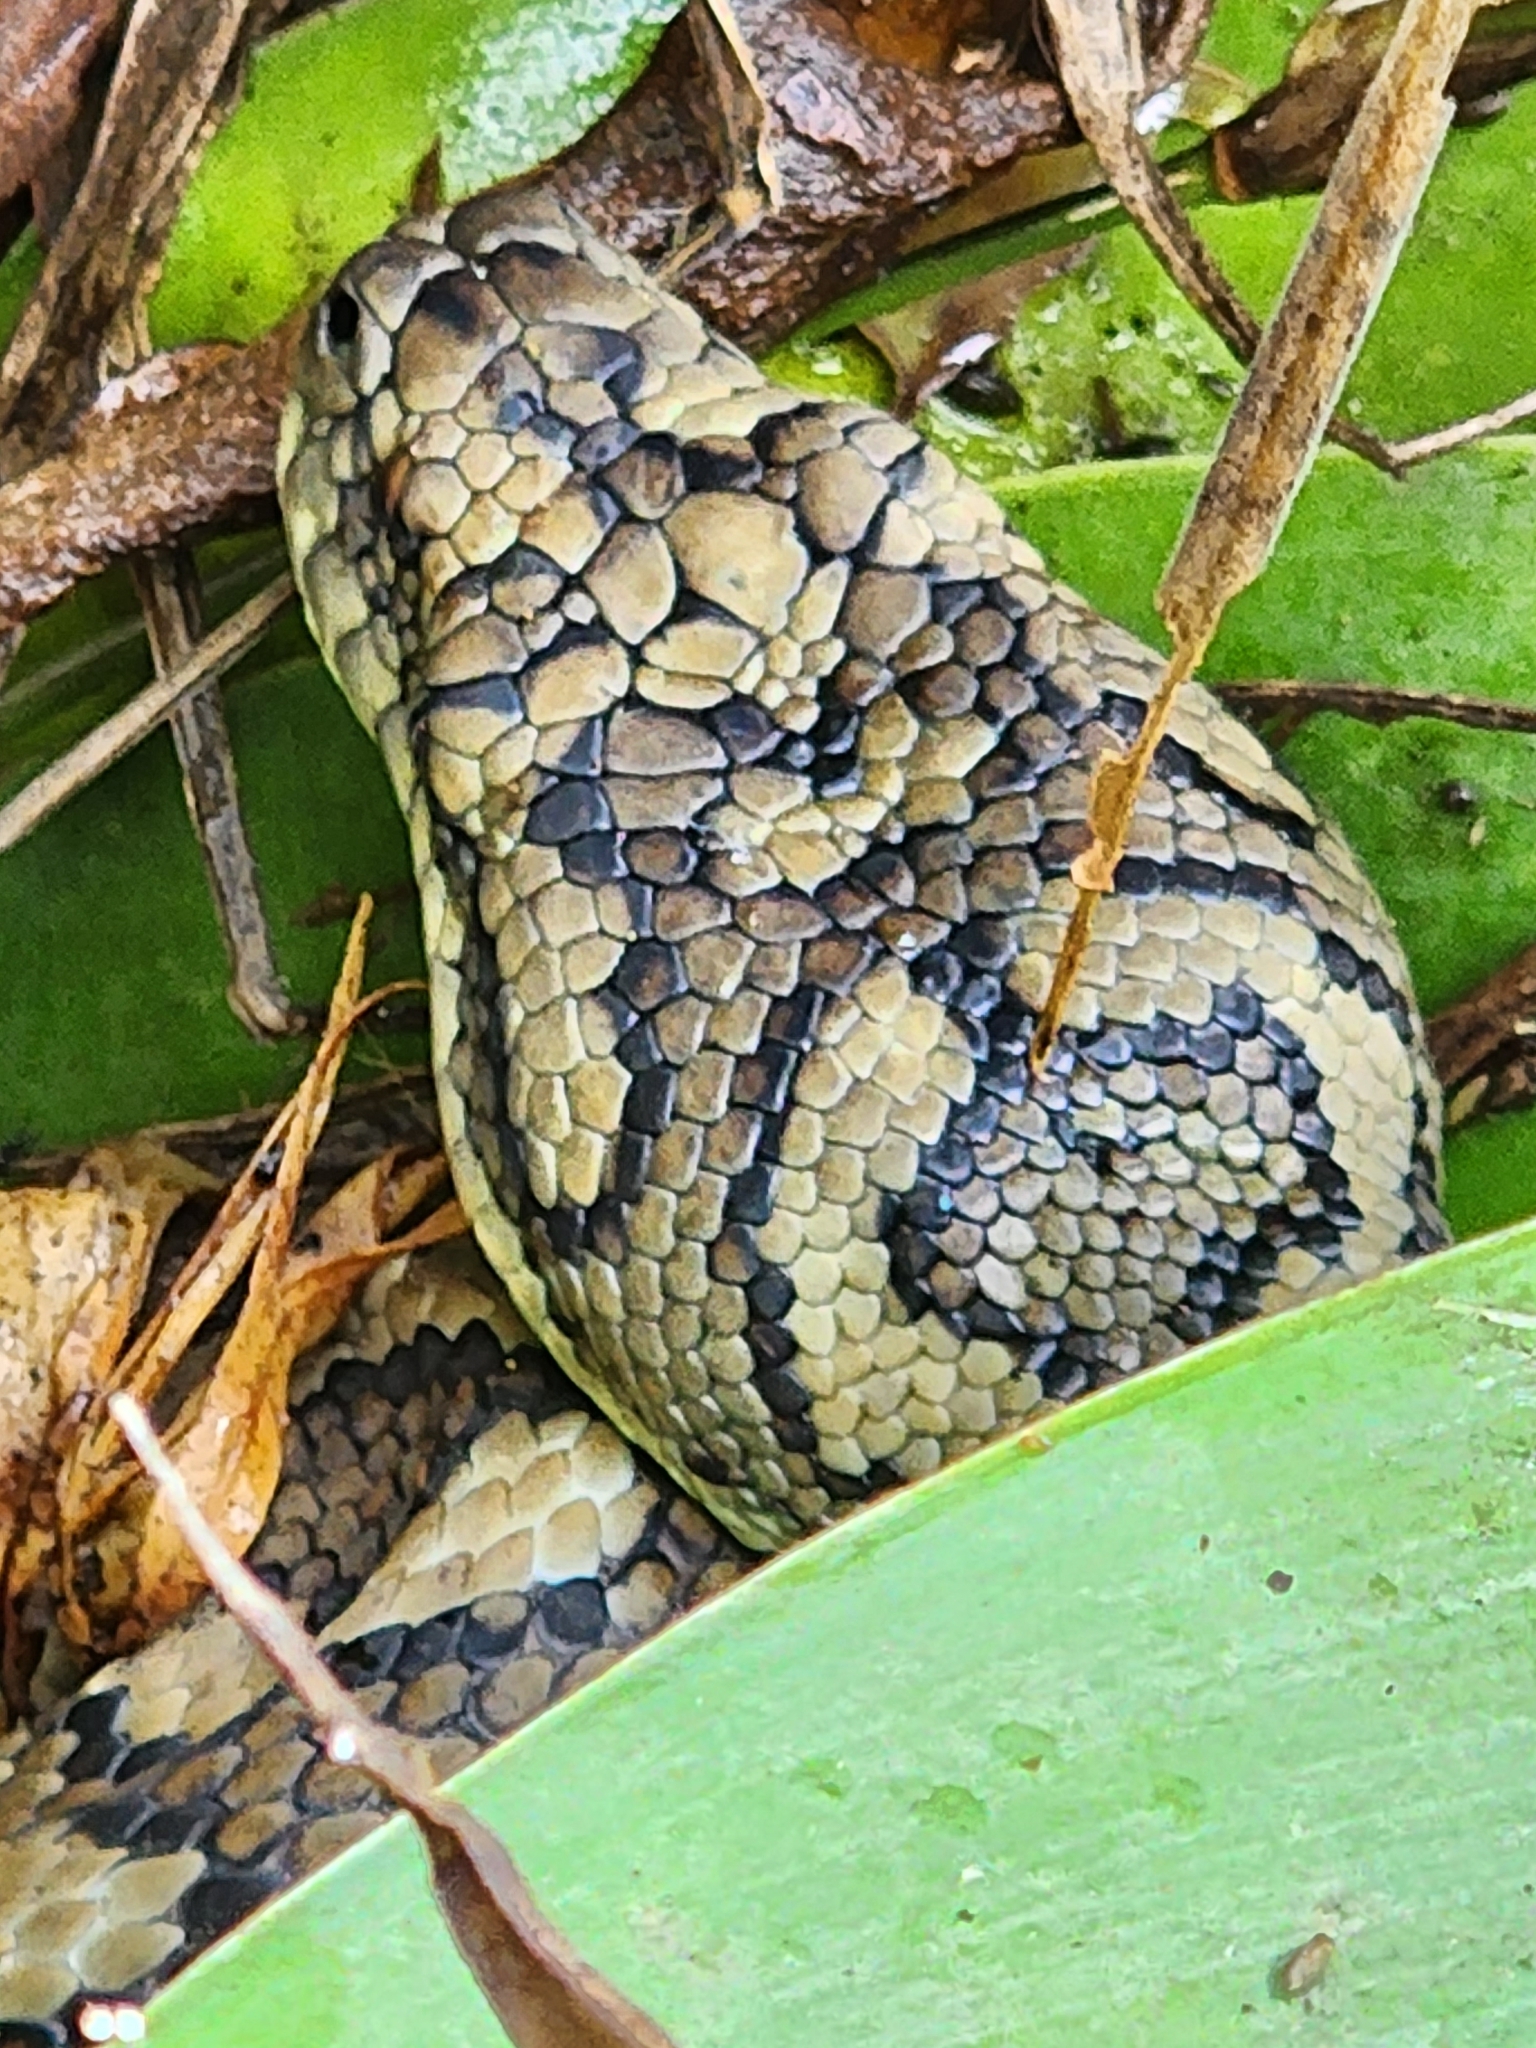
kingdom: Animalia
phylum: Chordata
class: Squamata
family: Pythonidae
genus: Morelia
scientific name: Morelia spilota
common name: Carpet python
